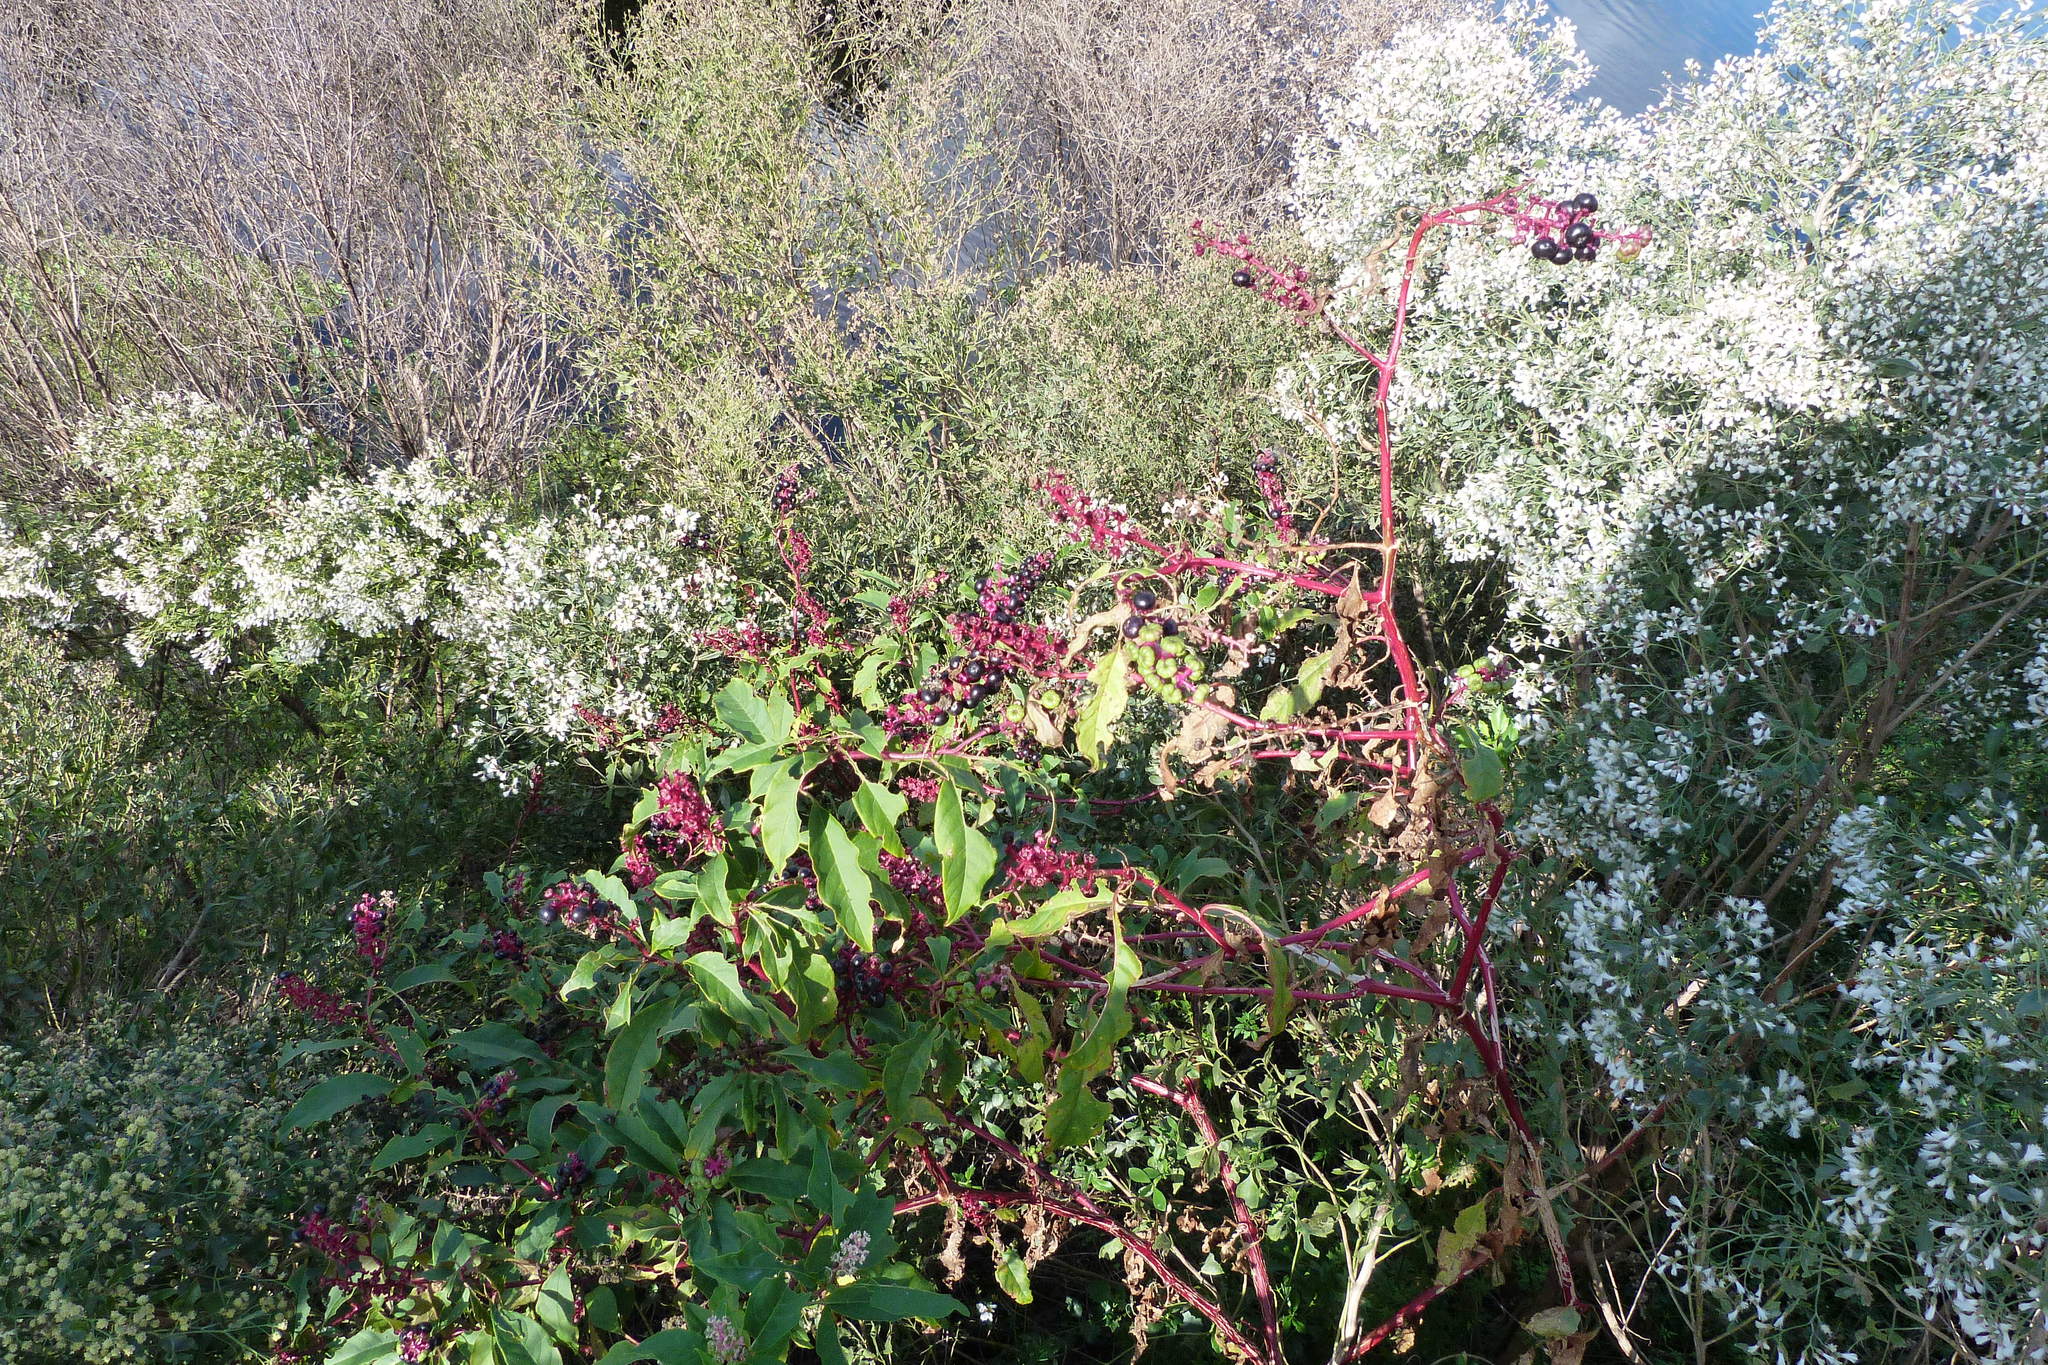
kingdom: Plantae
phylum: Tracheophyta
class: Magnoliopsida
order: Caryophyllales
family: Phytolaccaceae
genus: Phytolacca
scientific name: Phytolacca americana
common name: American pokeweed
